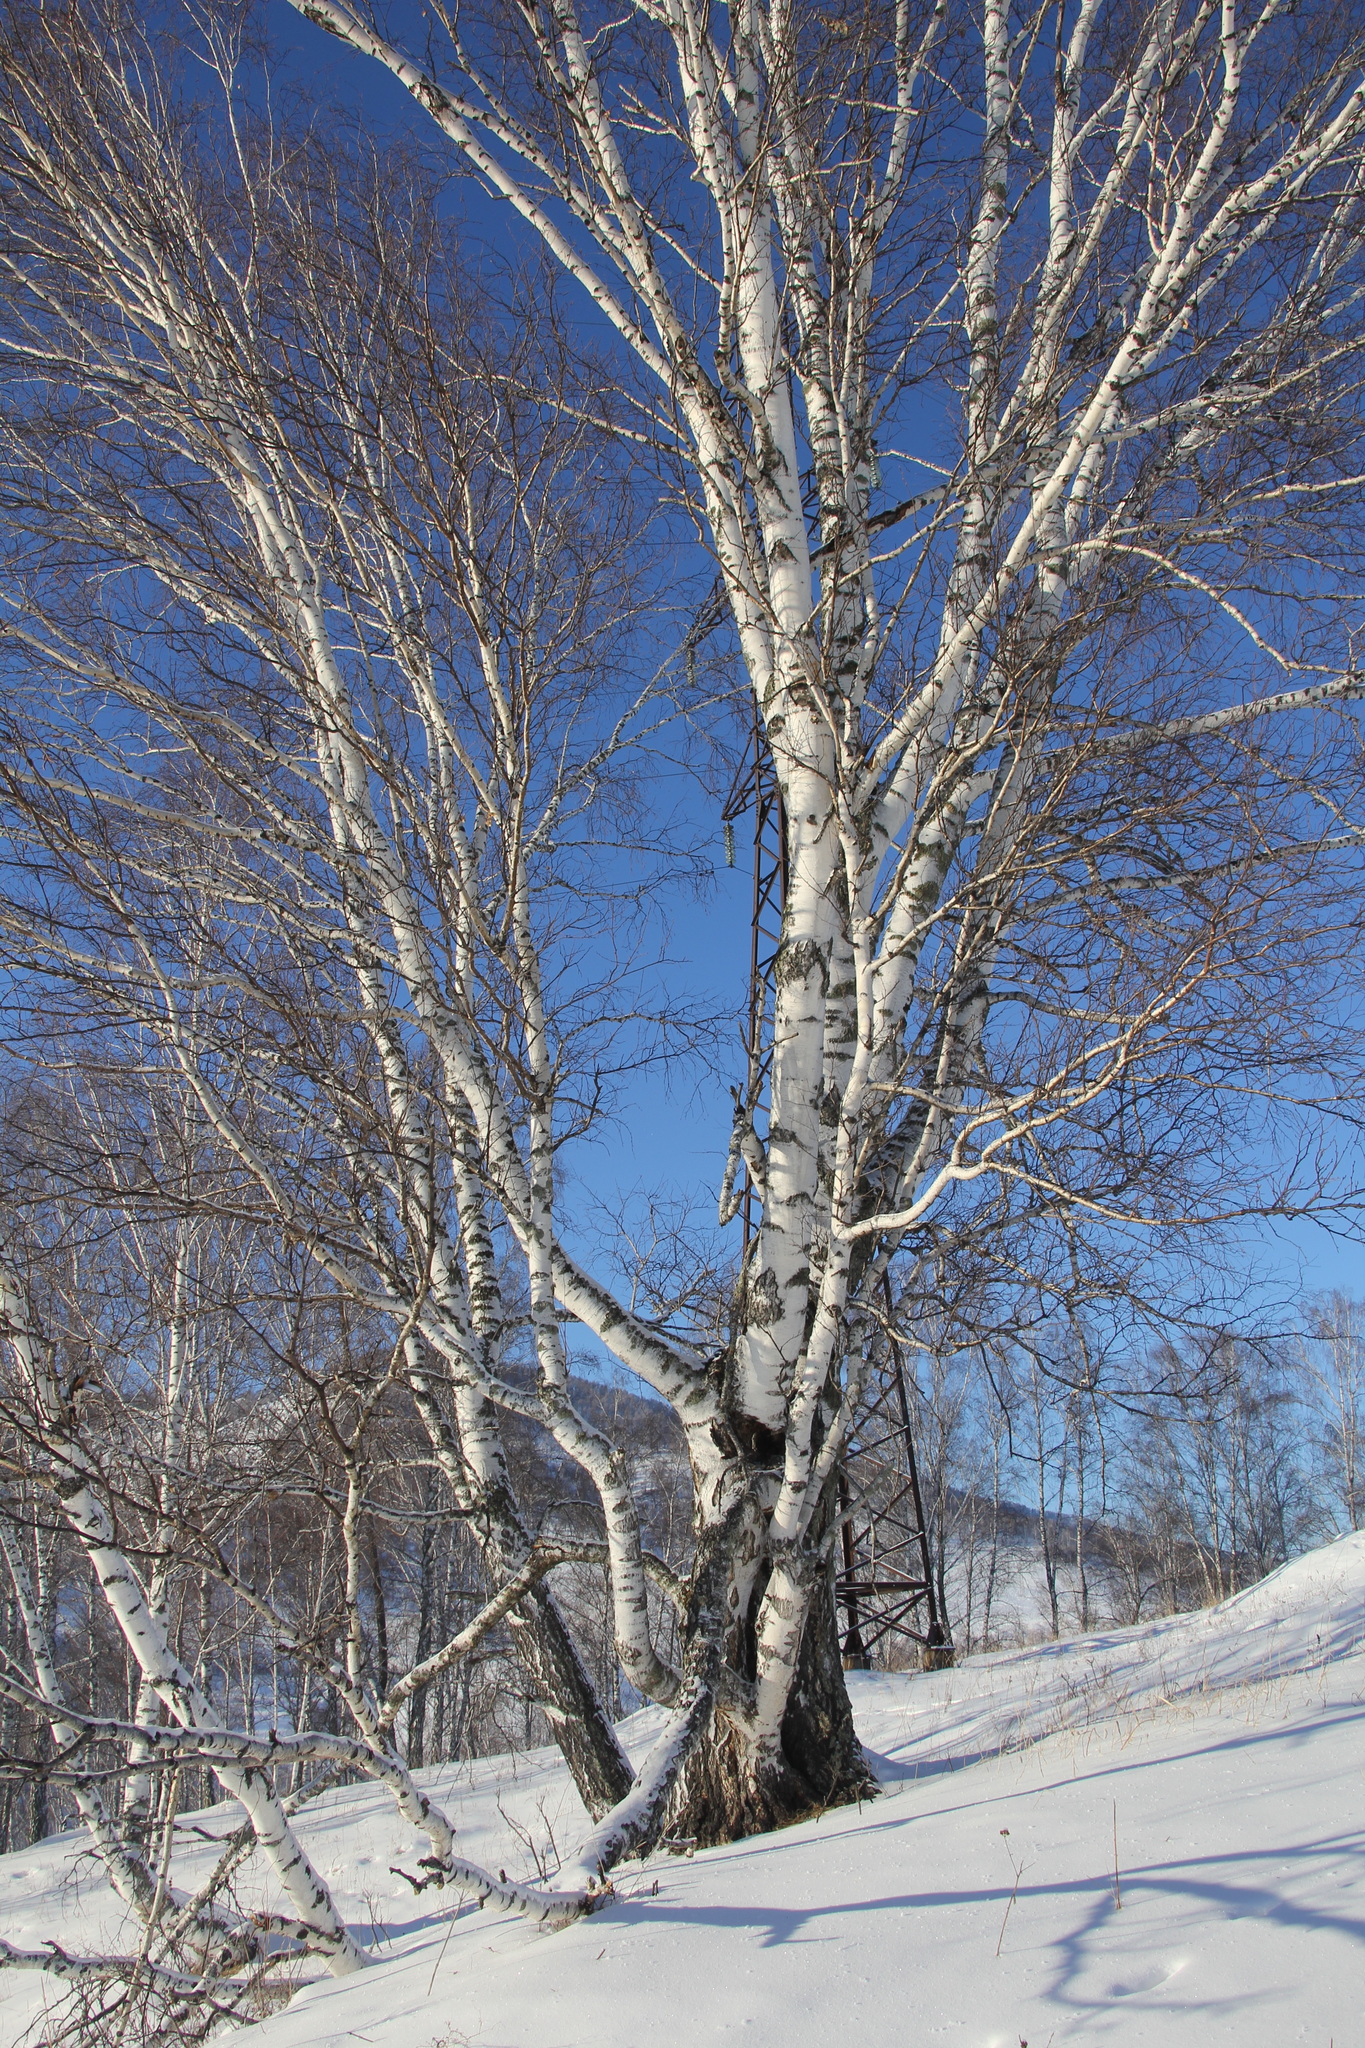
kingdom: Plantae
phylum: Tracheophyta
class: Magnoliopsida
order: Fagales
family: Betulaceae
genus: Betula
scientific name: Betula pendula
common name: Silver birch
